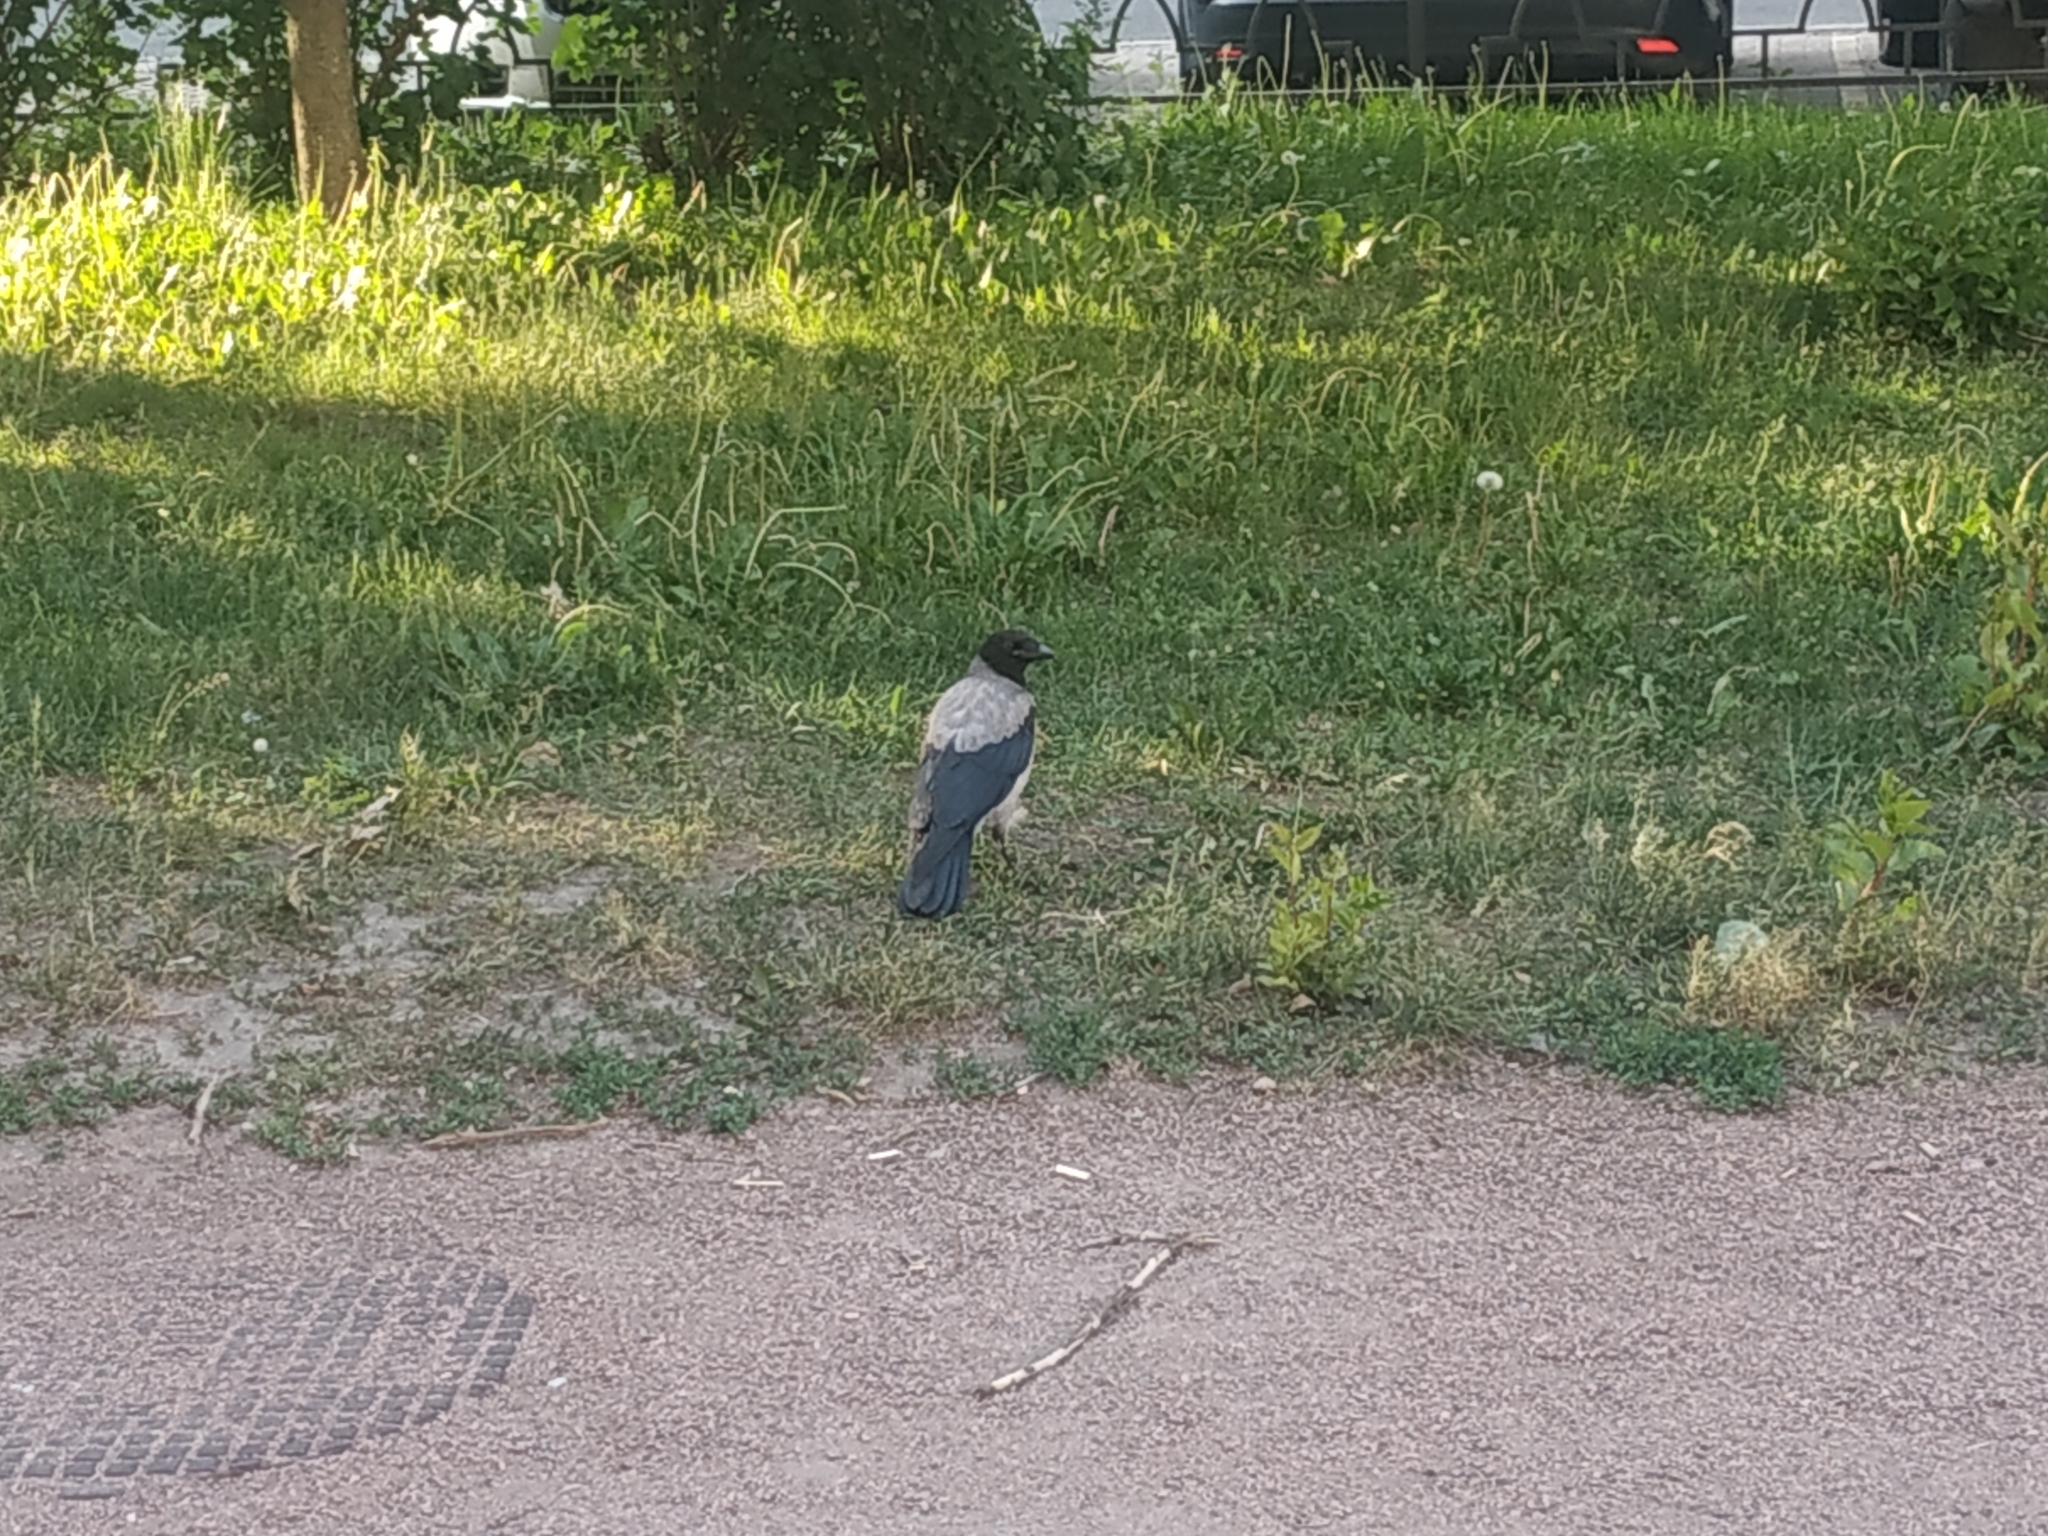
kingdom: Animalia
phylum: Chordata
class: Aves
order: Passeriformes
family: Corvidae
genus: Corvus
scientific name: Corvus cornix
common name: Hooded crow
